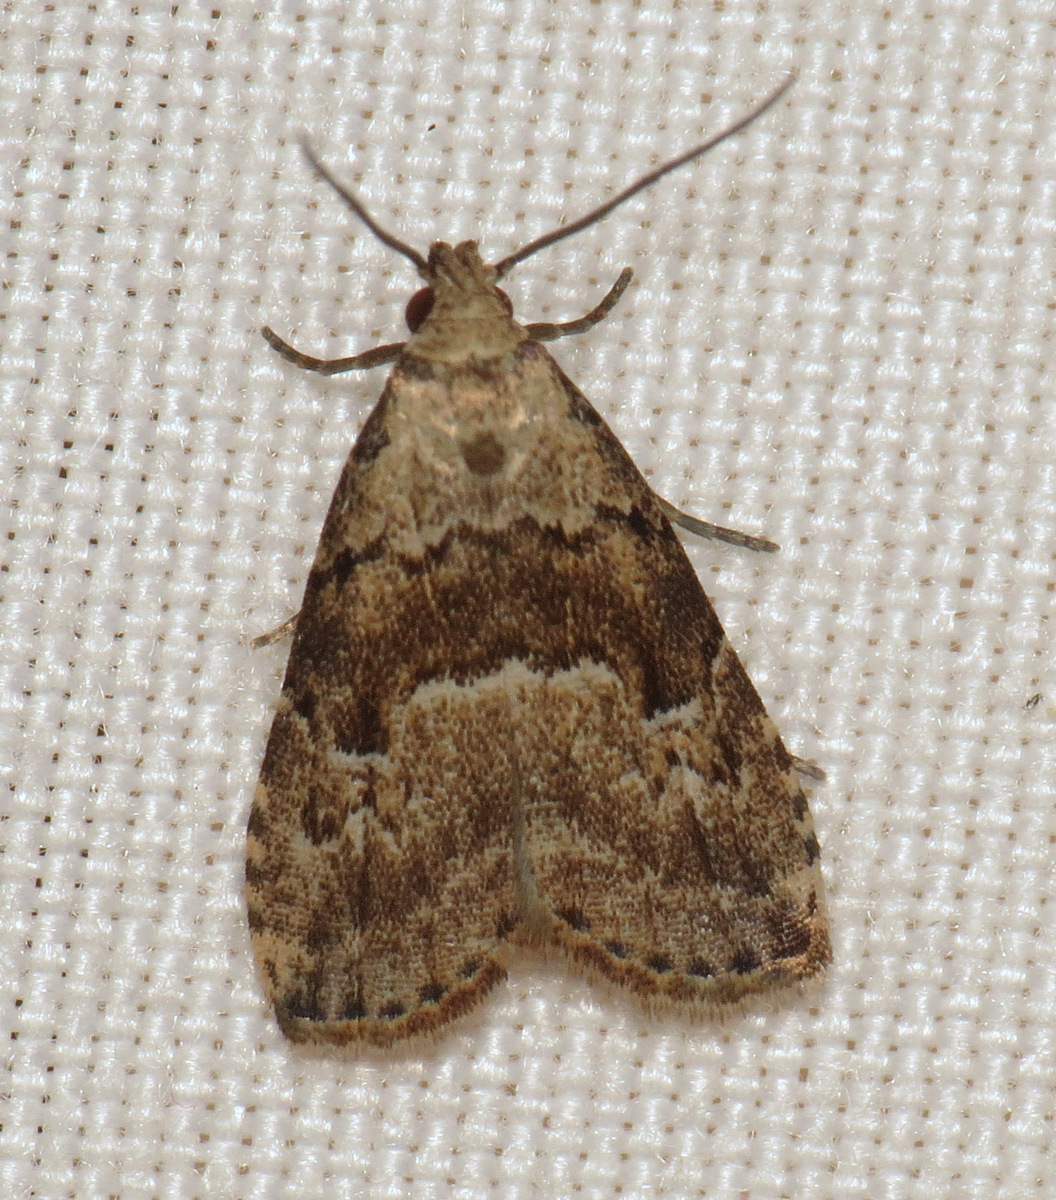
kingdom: Animalia
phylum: Arthropoda
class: Insecta
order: Lepidoptera
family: Erebidae
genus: Hypenodes
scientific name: Hypenodes franclemonti
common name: Franclemont's hypenodes moth
